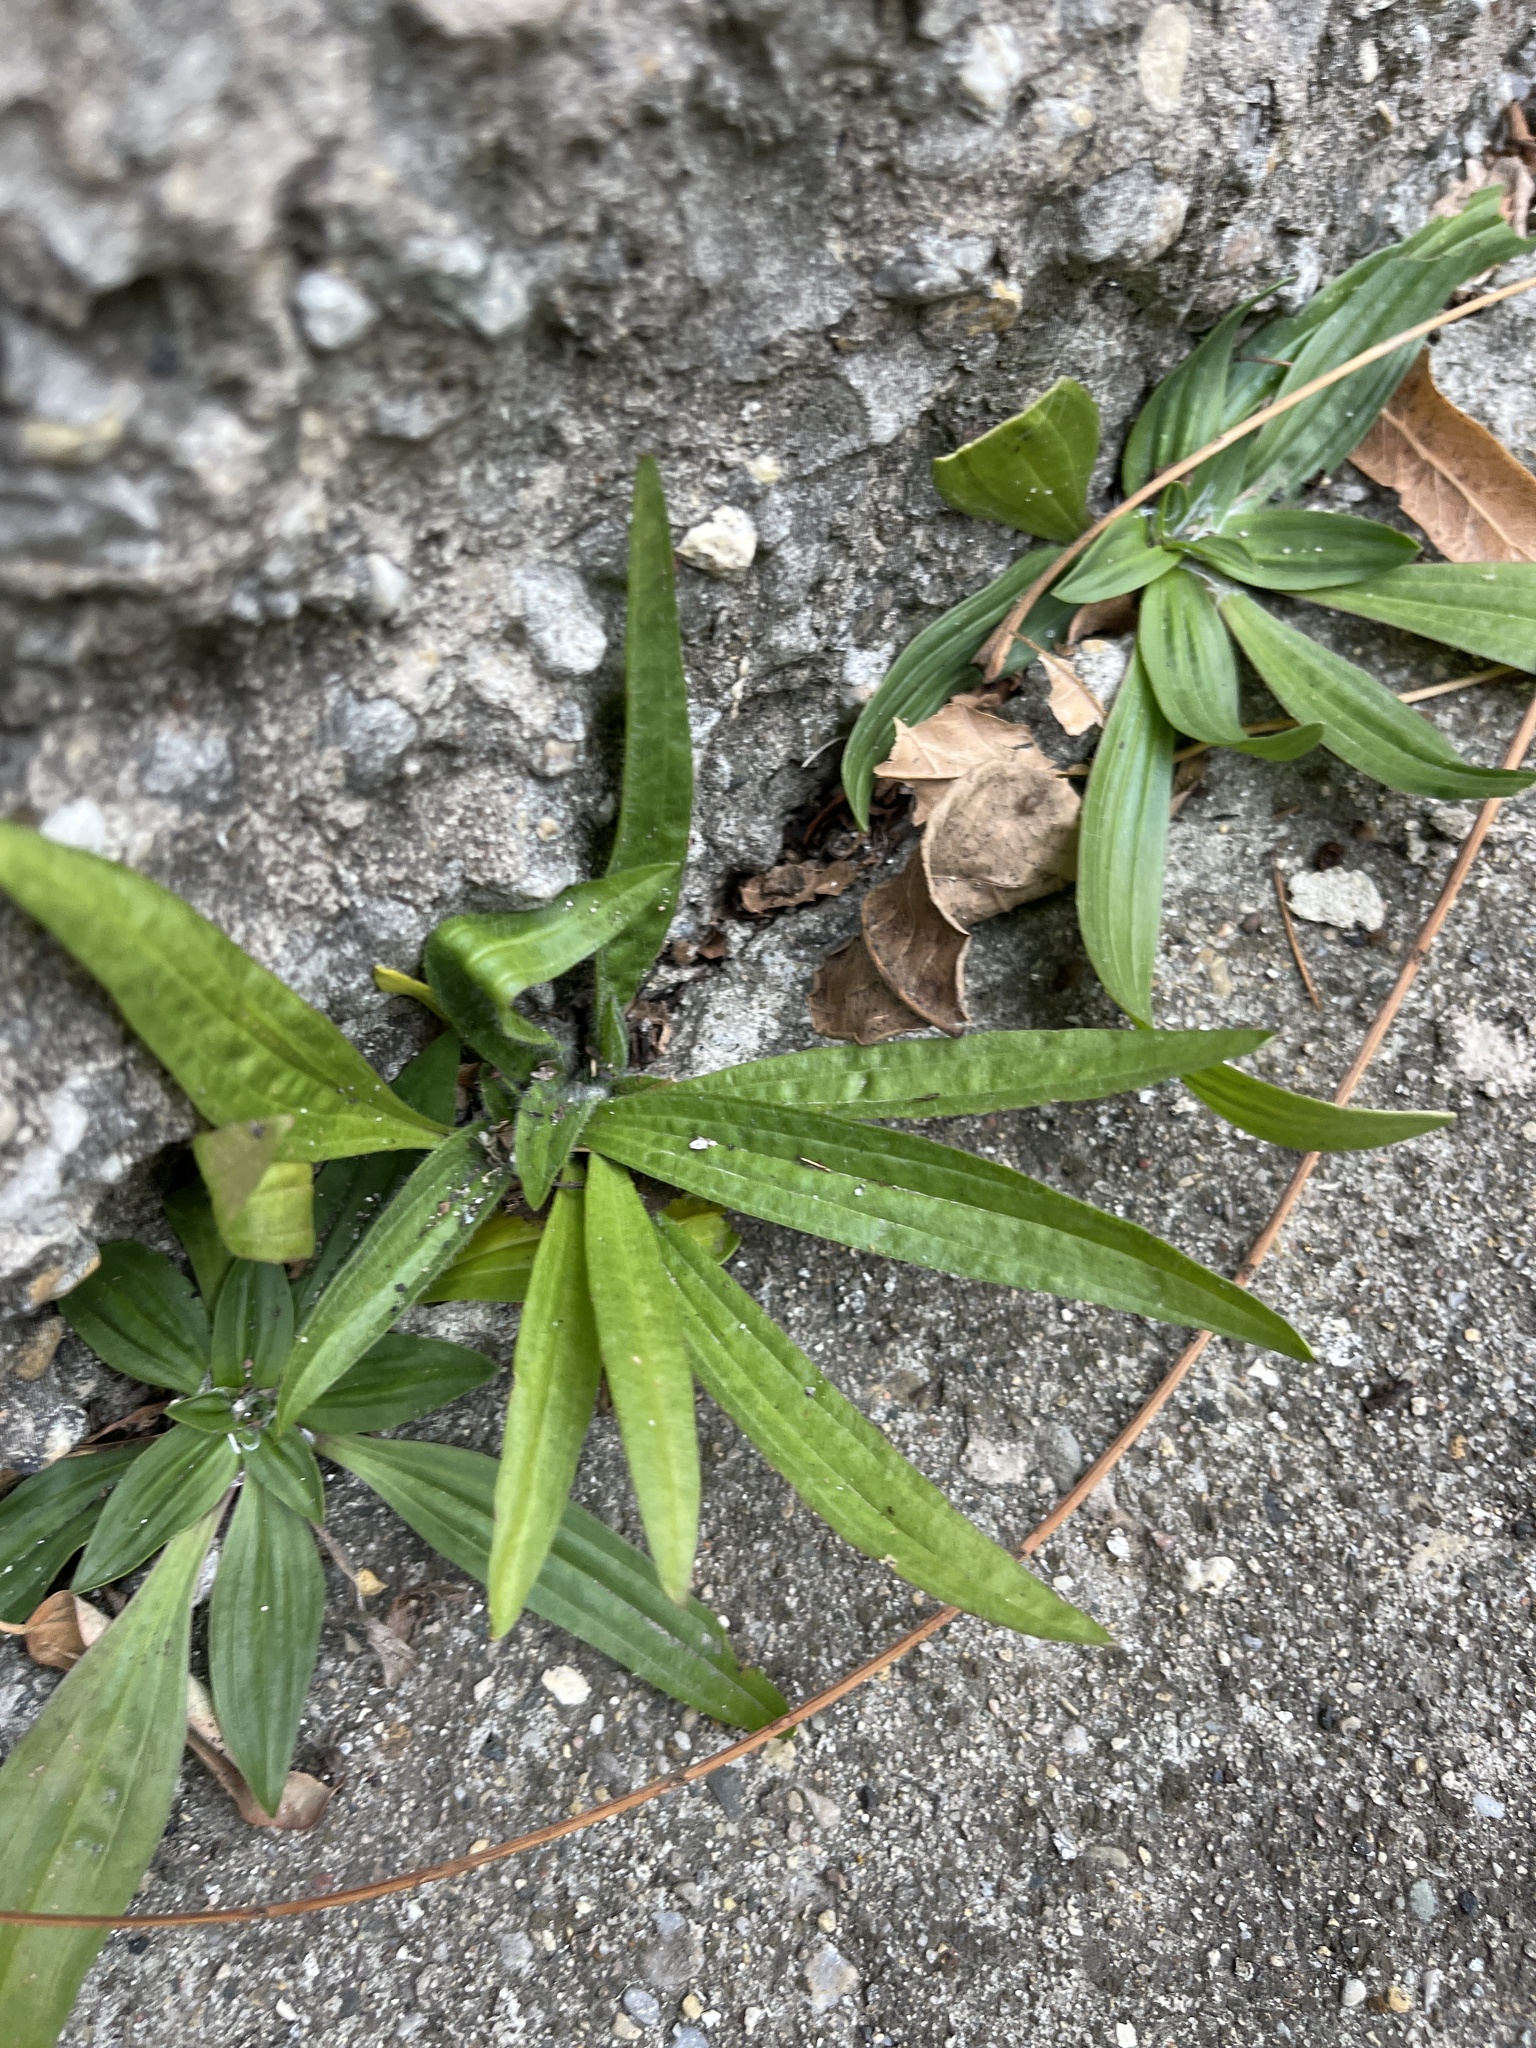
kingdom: Plantae
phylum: Tracheophyta
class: Magnoliopsida
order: Lamiales
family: Plantaginaceae
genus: Plantago
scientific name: Plantago lanceolata
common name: Ribwort plantain
